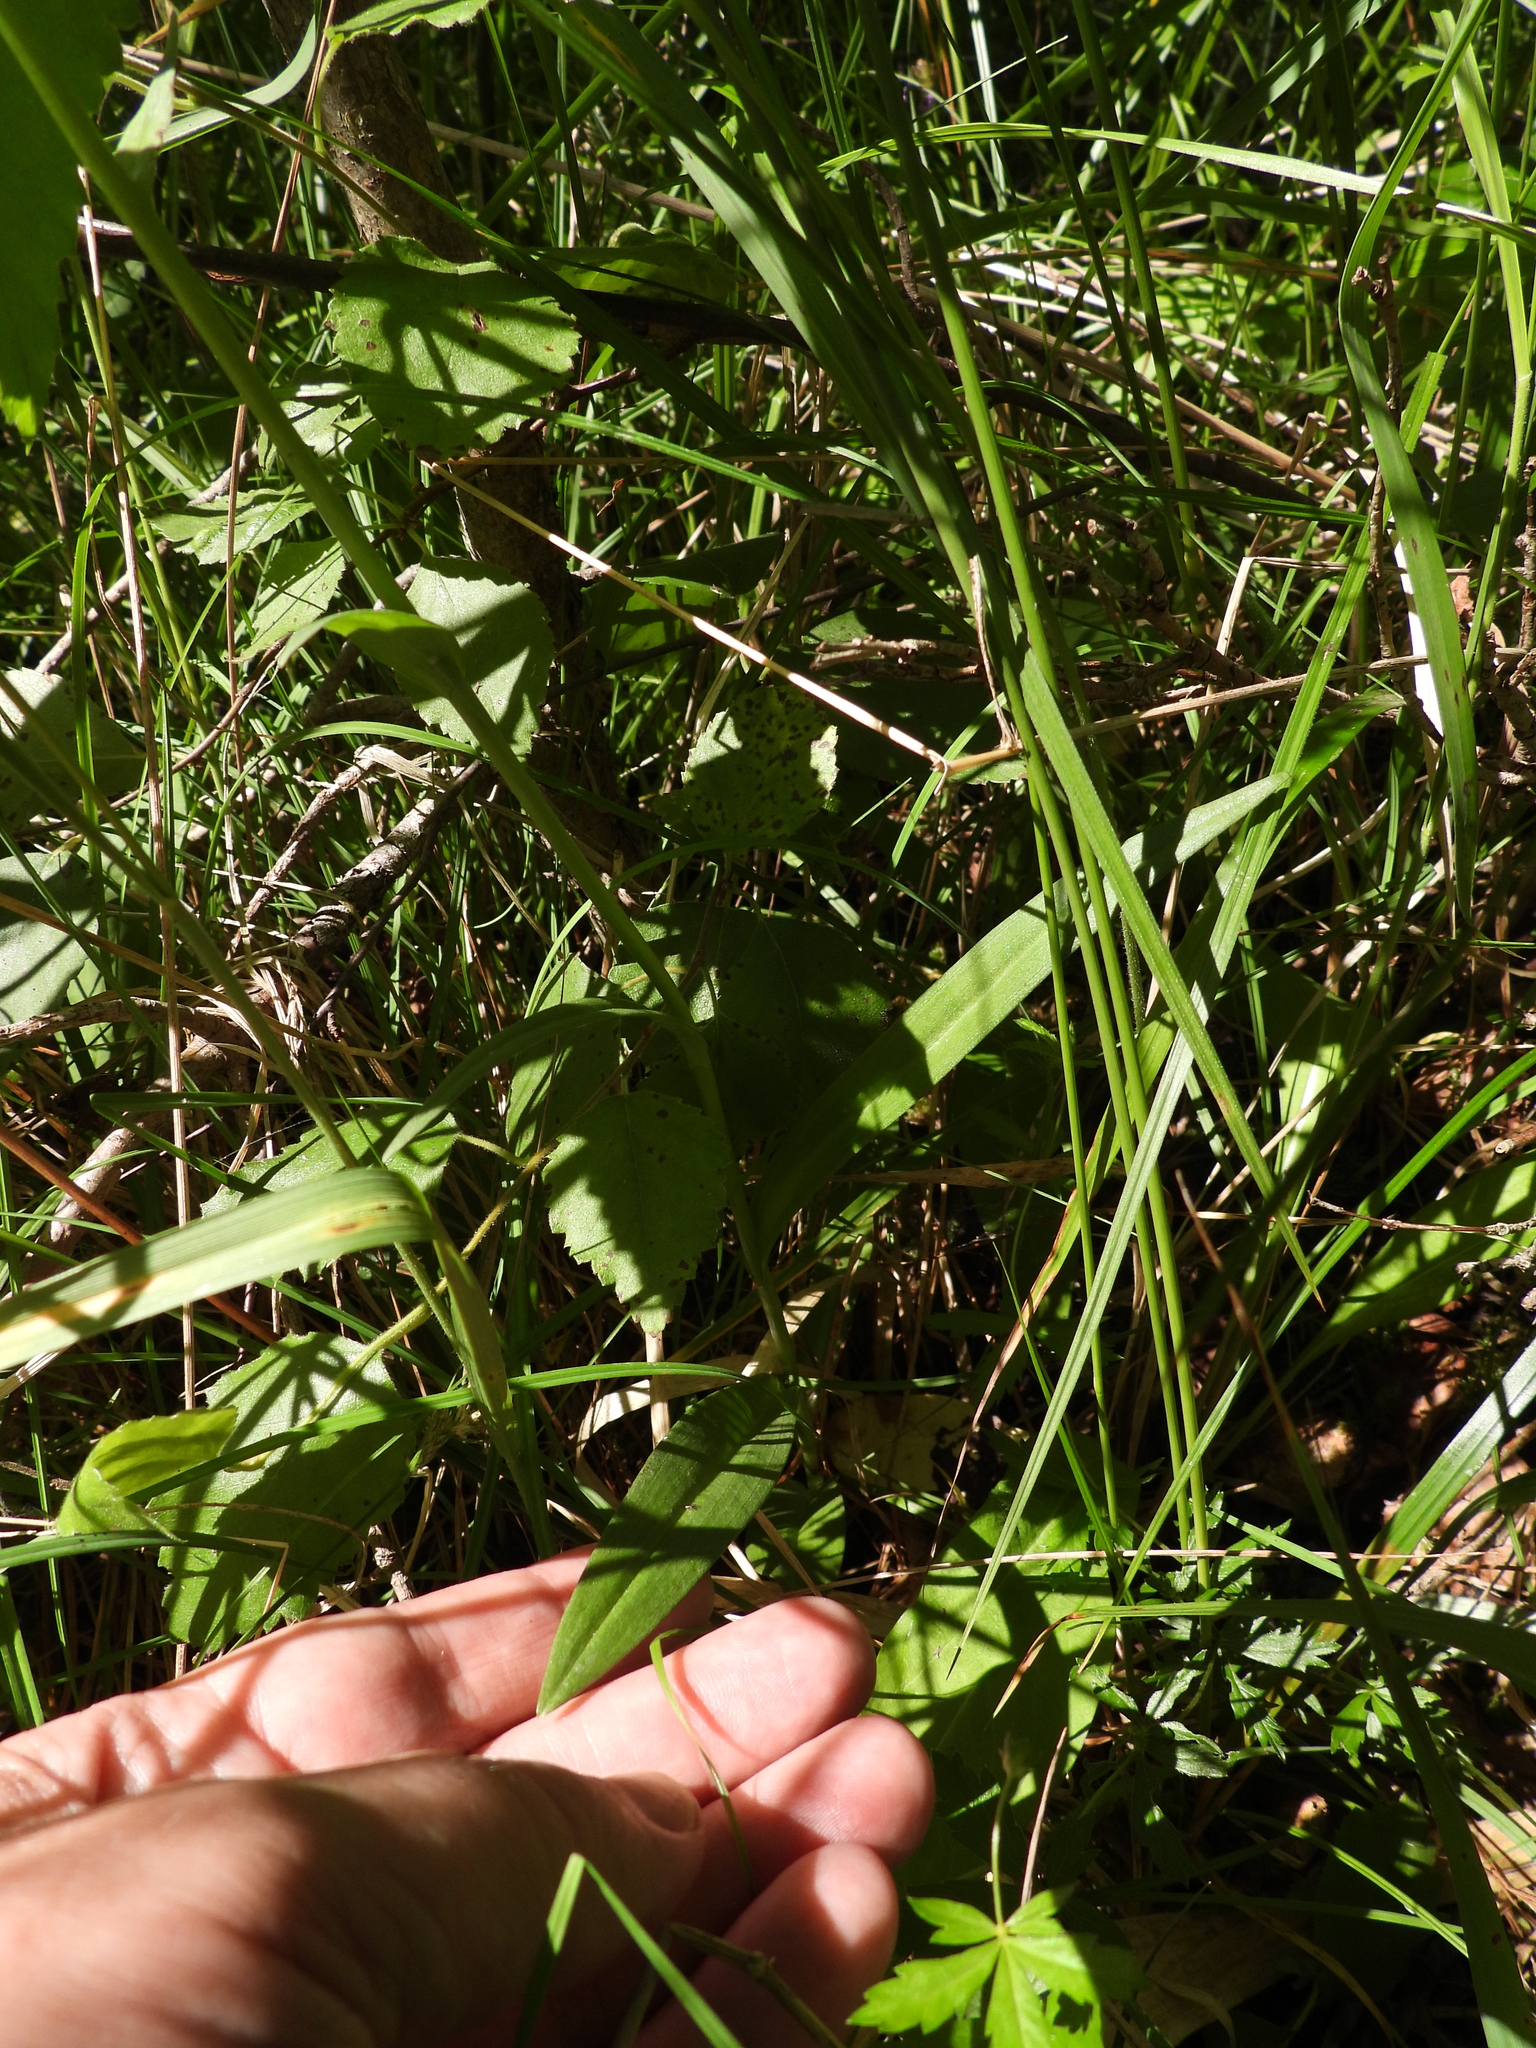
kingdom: Plantae
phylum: Tracheophyta
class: Liliopsida
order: Asparagales
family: Orchidaceae
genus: Dactylorhiza
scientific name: Dactylorhiza maculata
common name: Heath spotted-orchid
